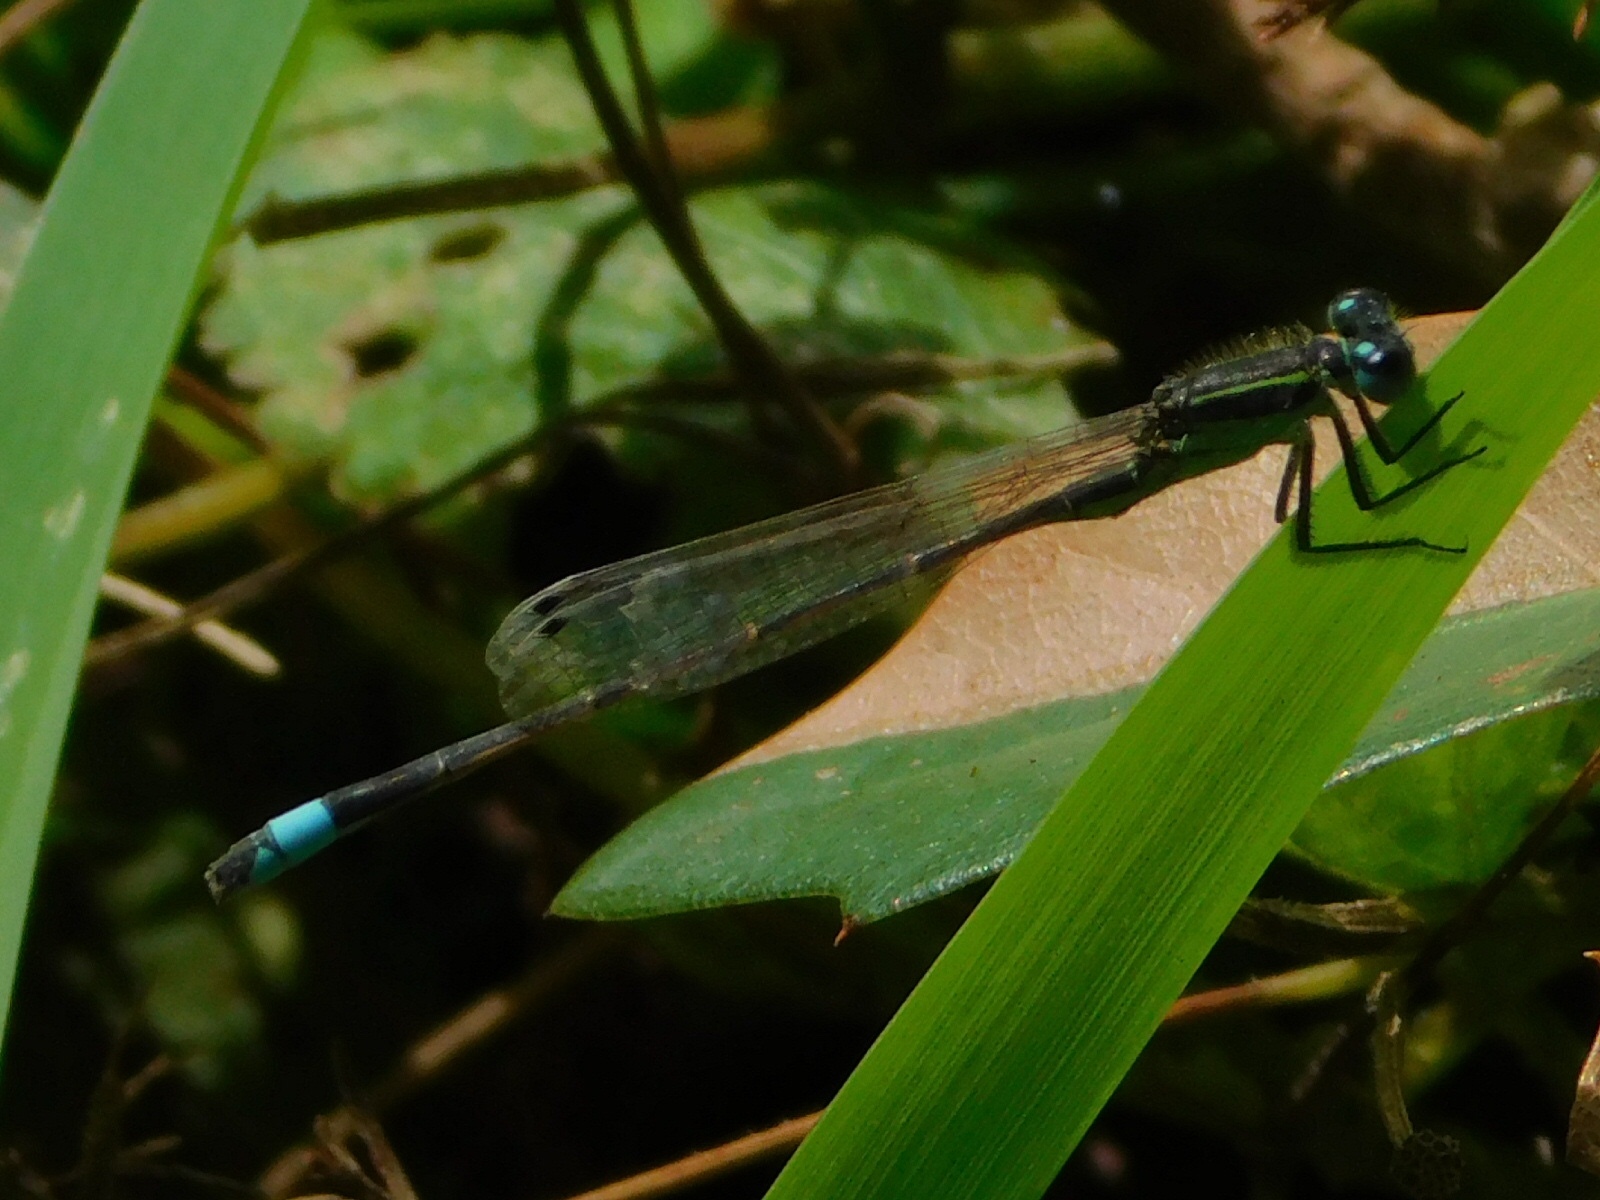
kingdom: Animalia
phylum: Arthropoda
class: Insecta
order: Odonata
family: Coenagrionidae
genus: Ischnura
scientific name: Ischnura ramburii
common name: Rambur's forktail
